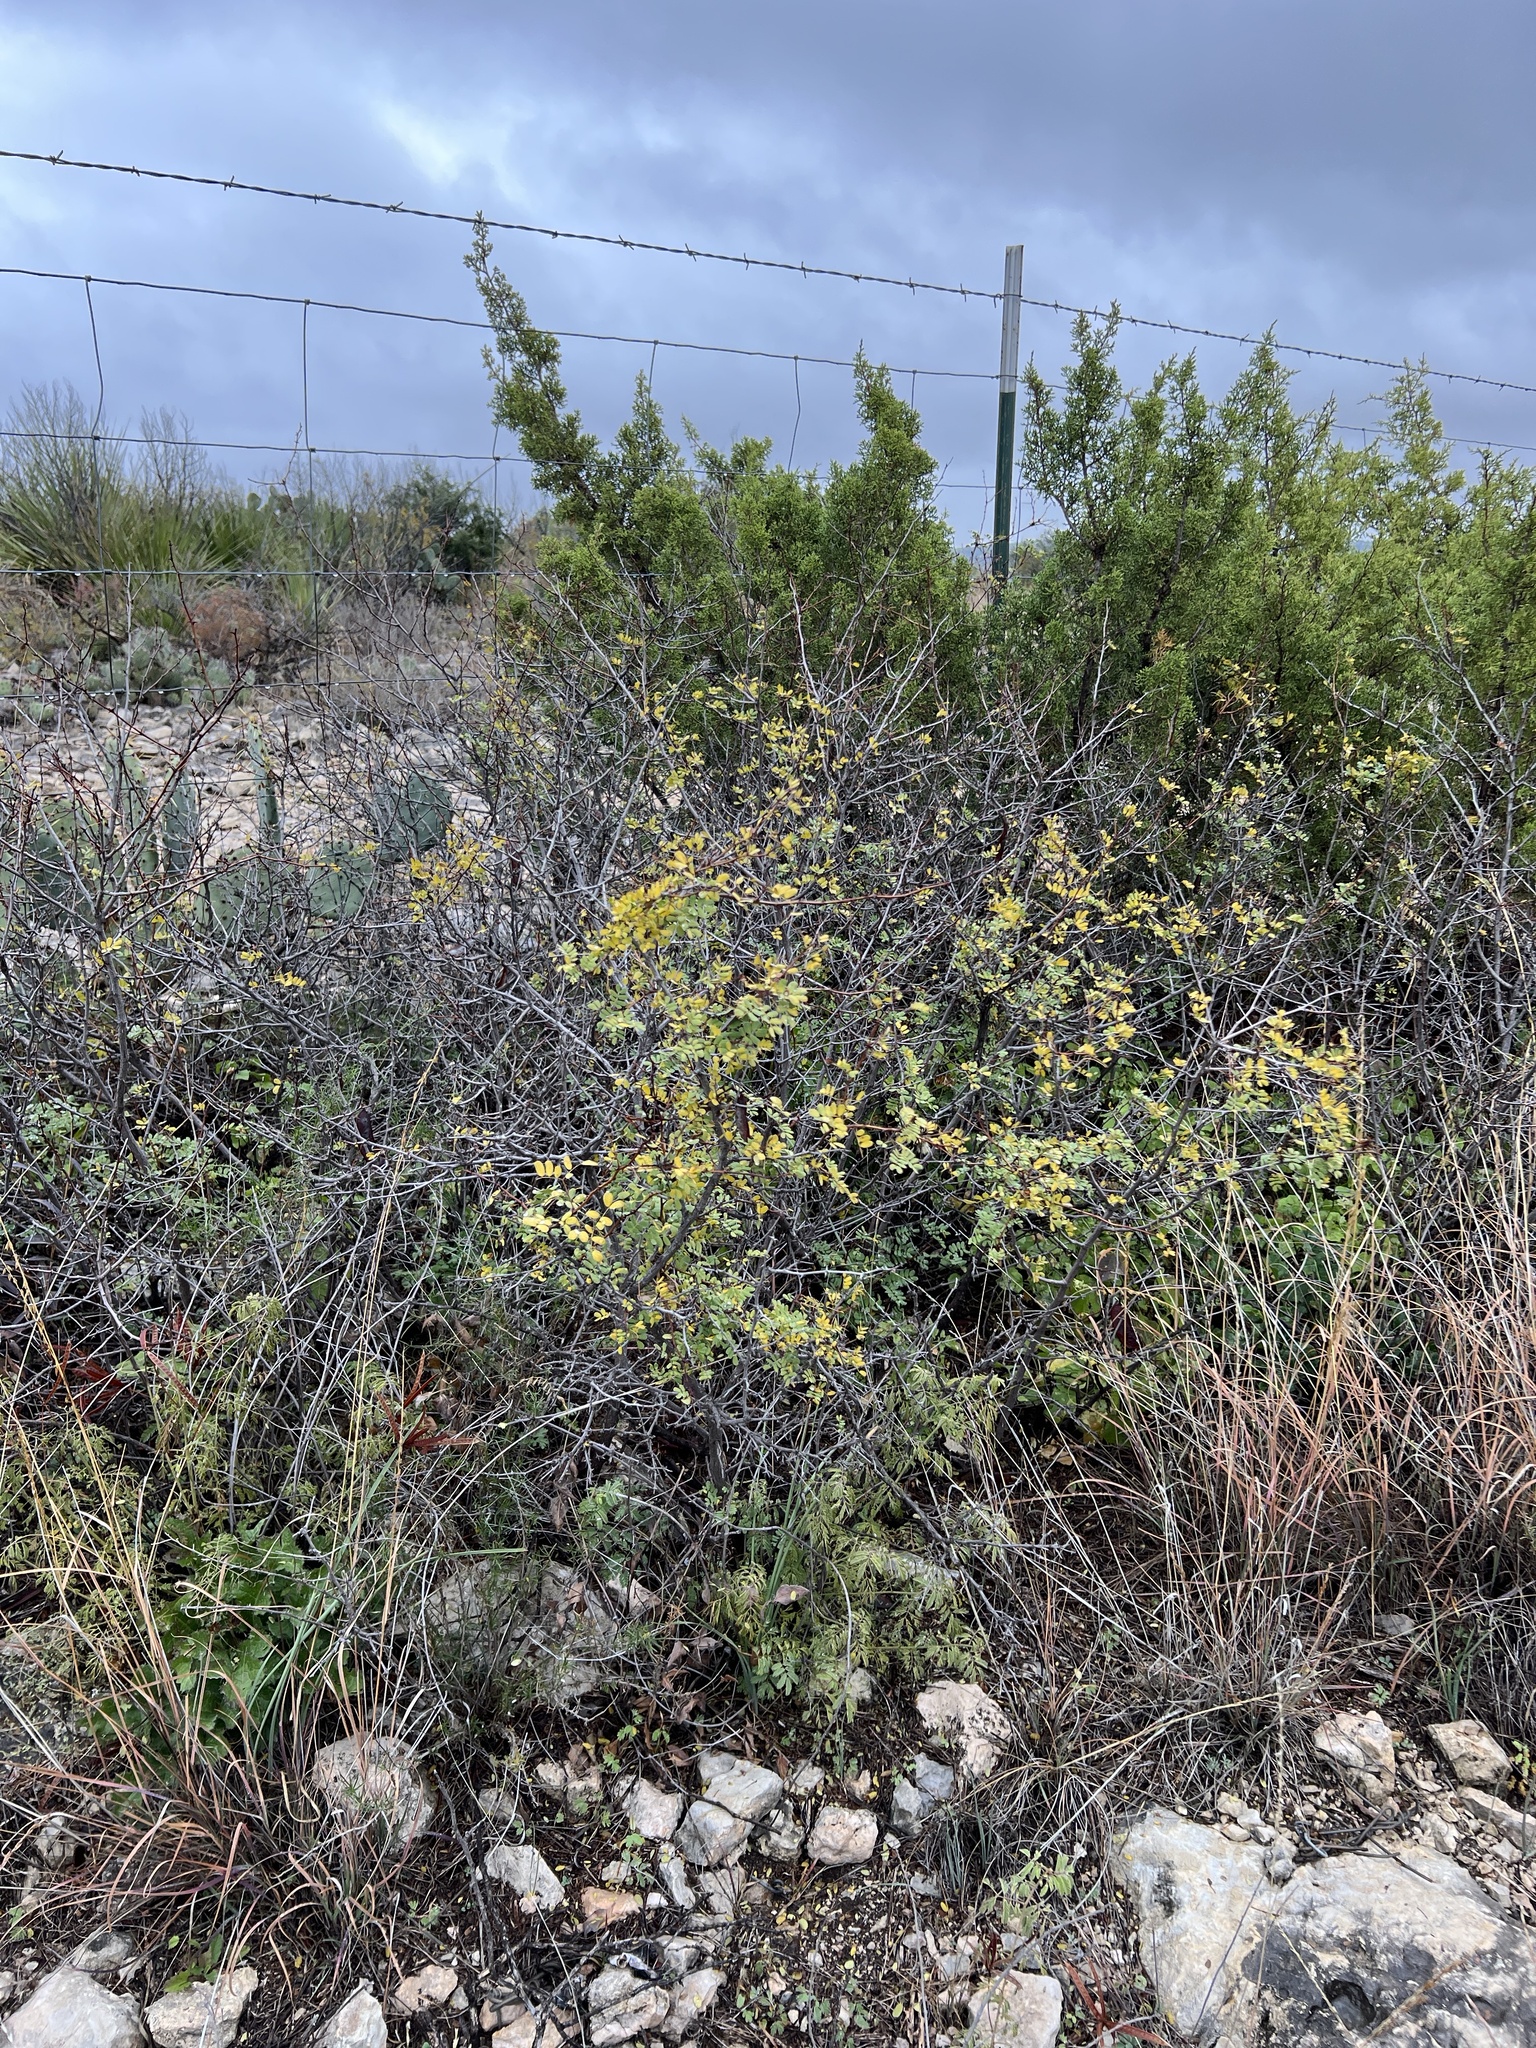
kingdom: Plantae
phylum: Tracheophyta
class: Magnoliopsida
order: Fabales
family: Fabaceae
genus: Senegalia
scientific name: Senegalia roemeriana
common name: Roemer's acacia
